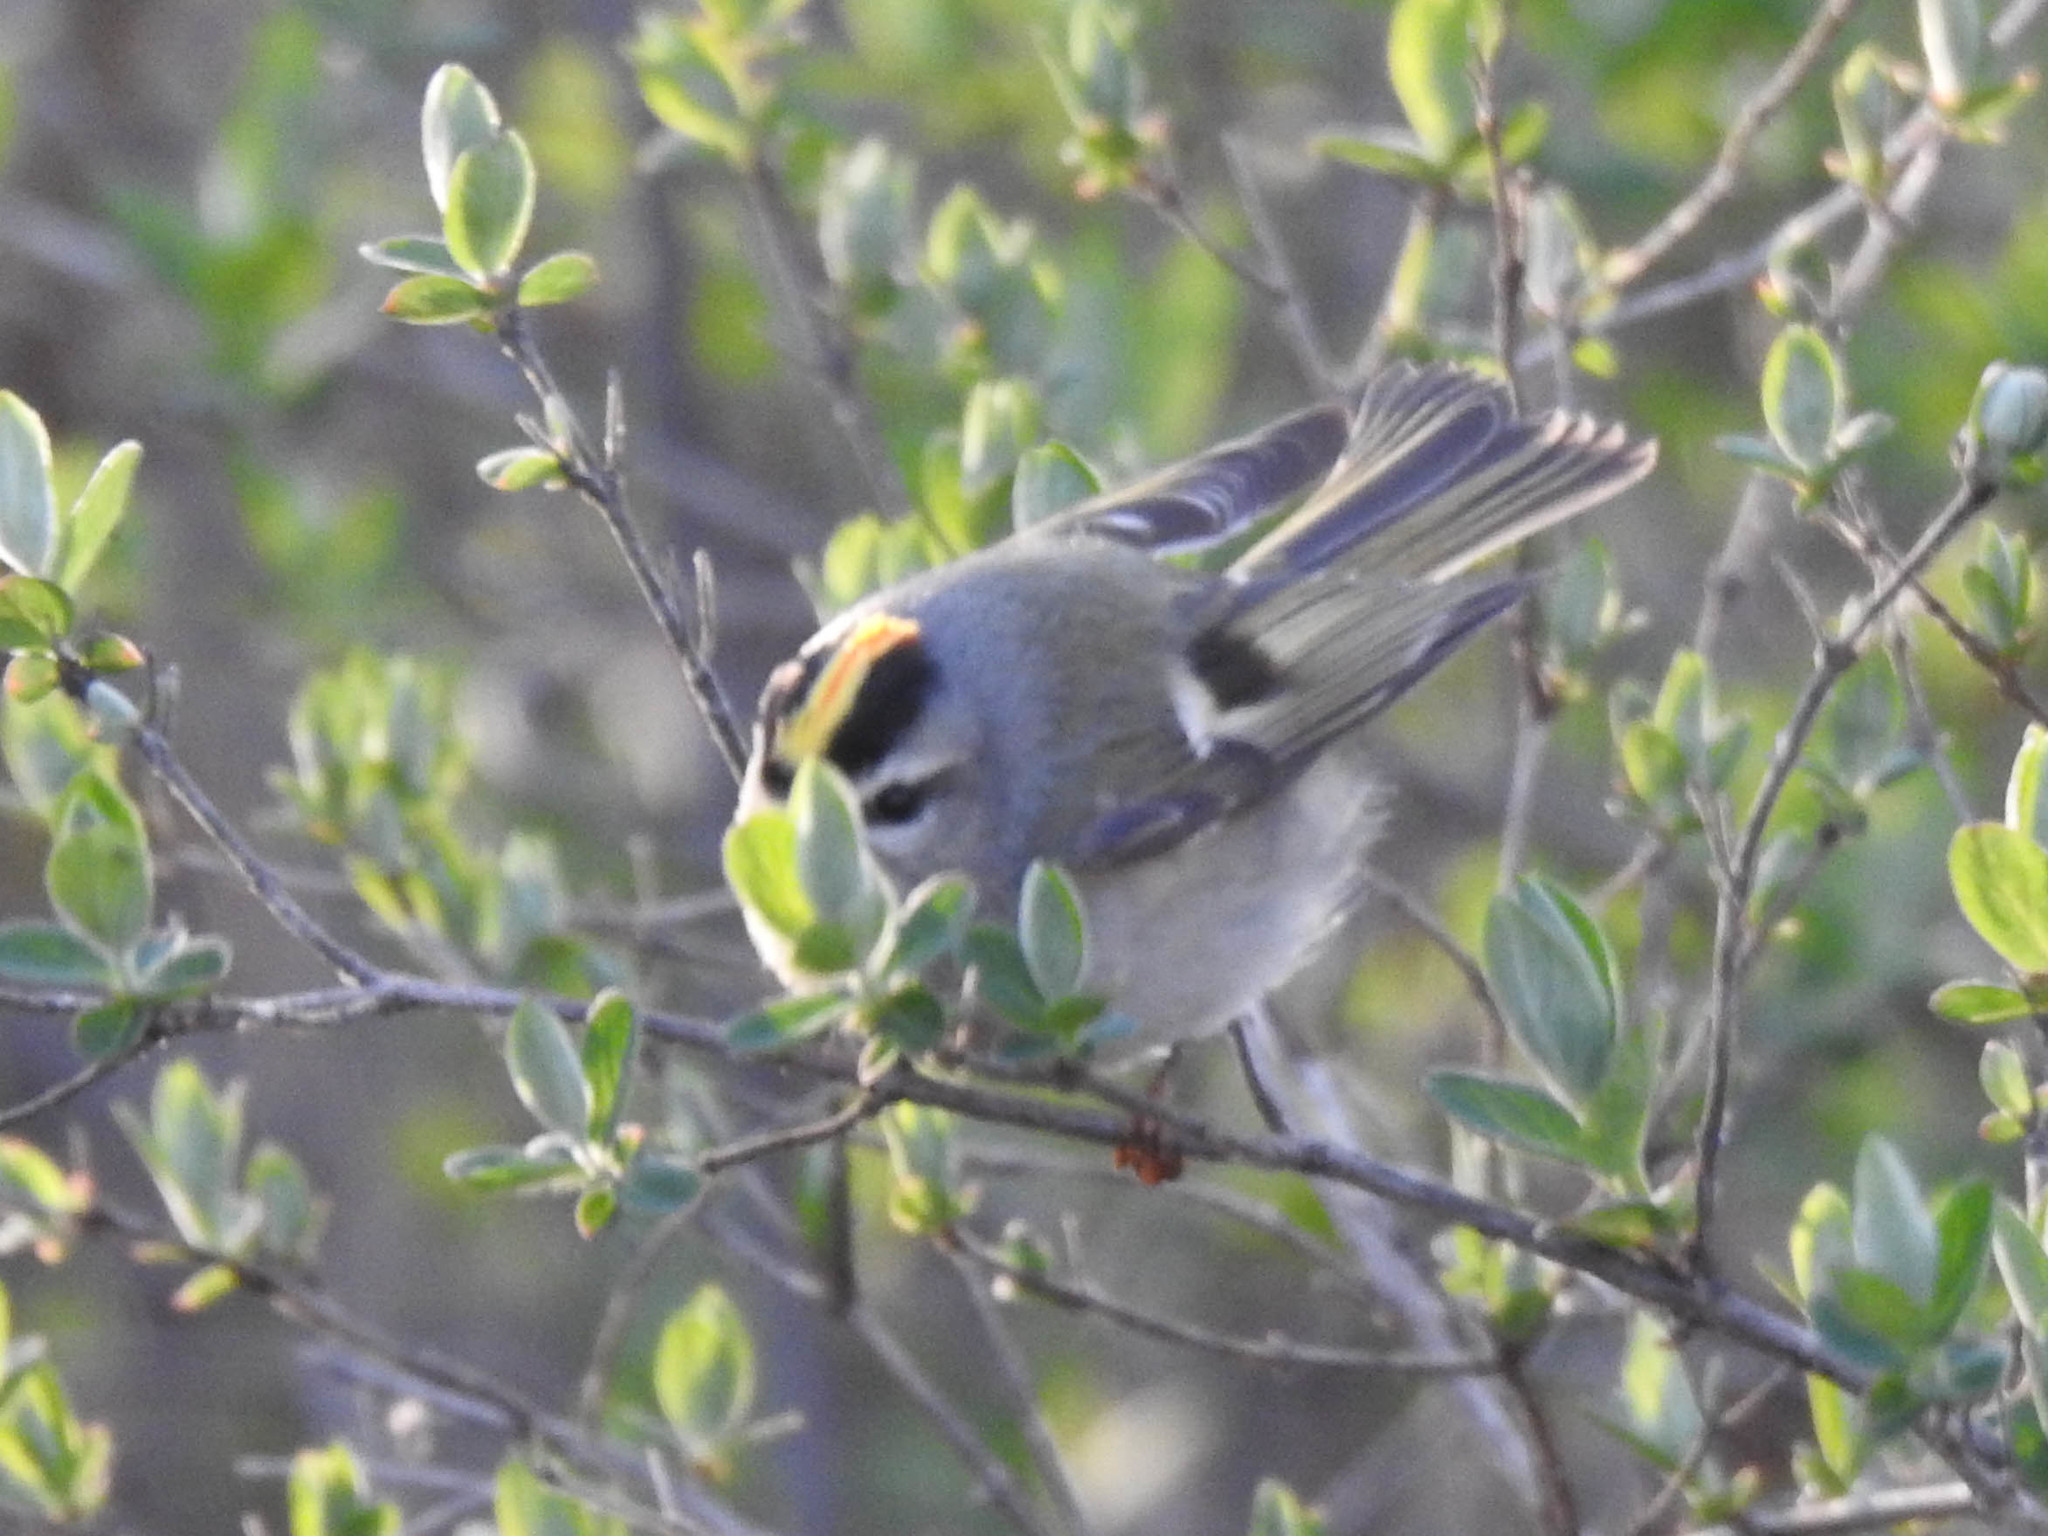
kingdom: Animalia
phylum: Chordata
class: Aves
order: Passeriformes
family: Regulidae
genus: Regulus
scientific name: Regulus satrapa
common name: Golden-crowned kinglet
